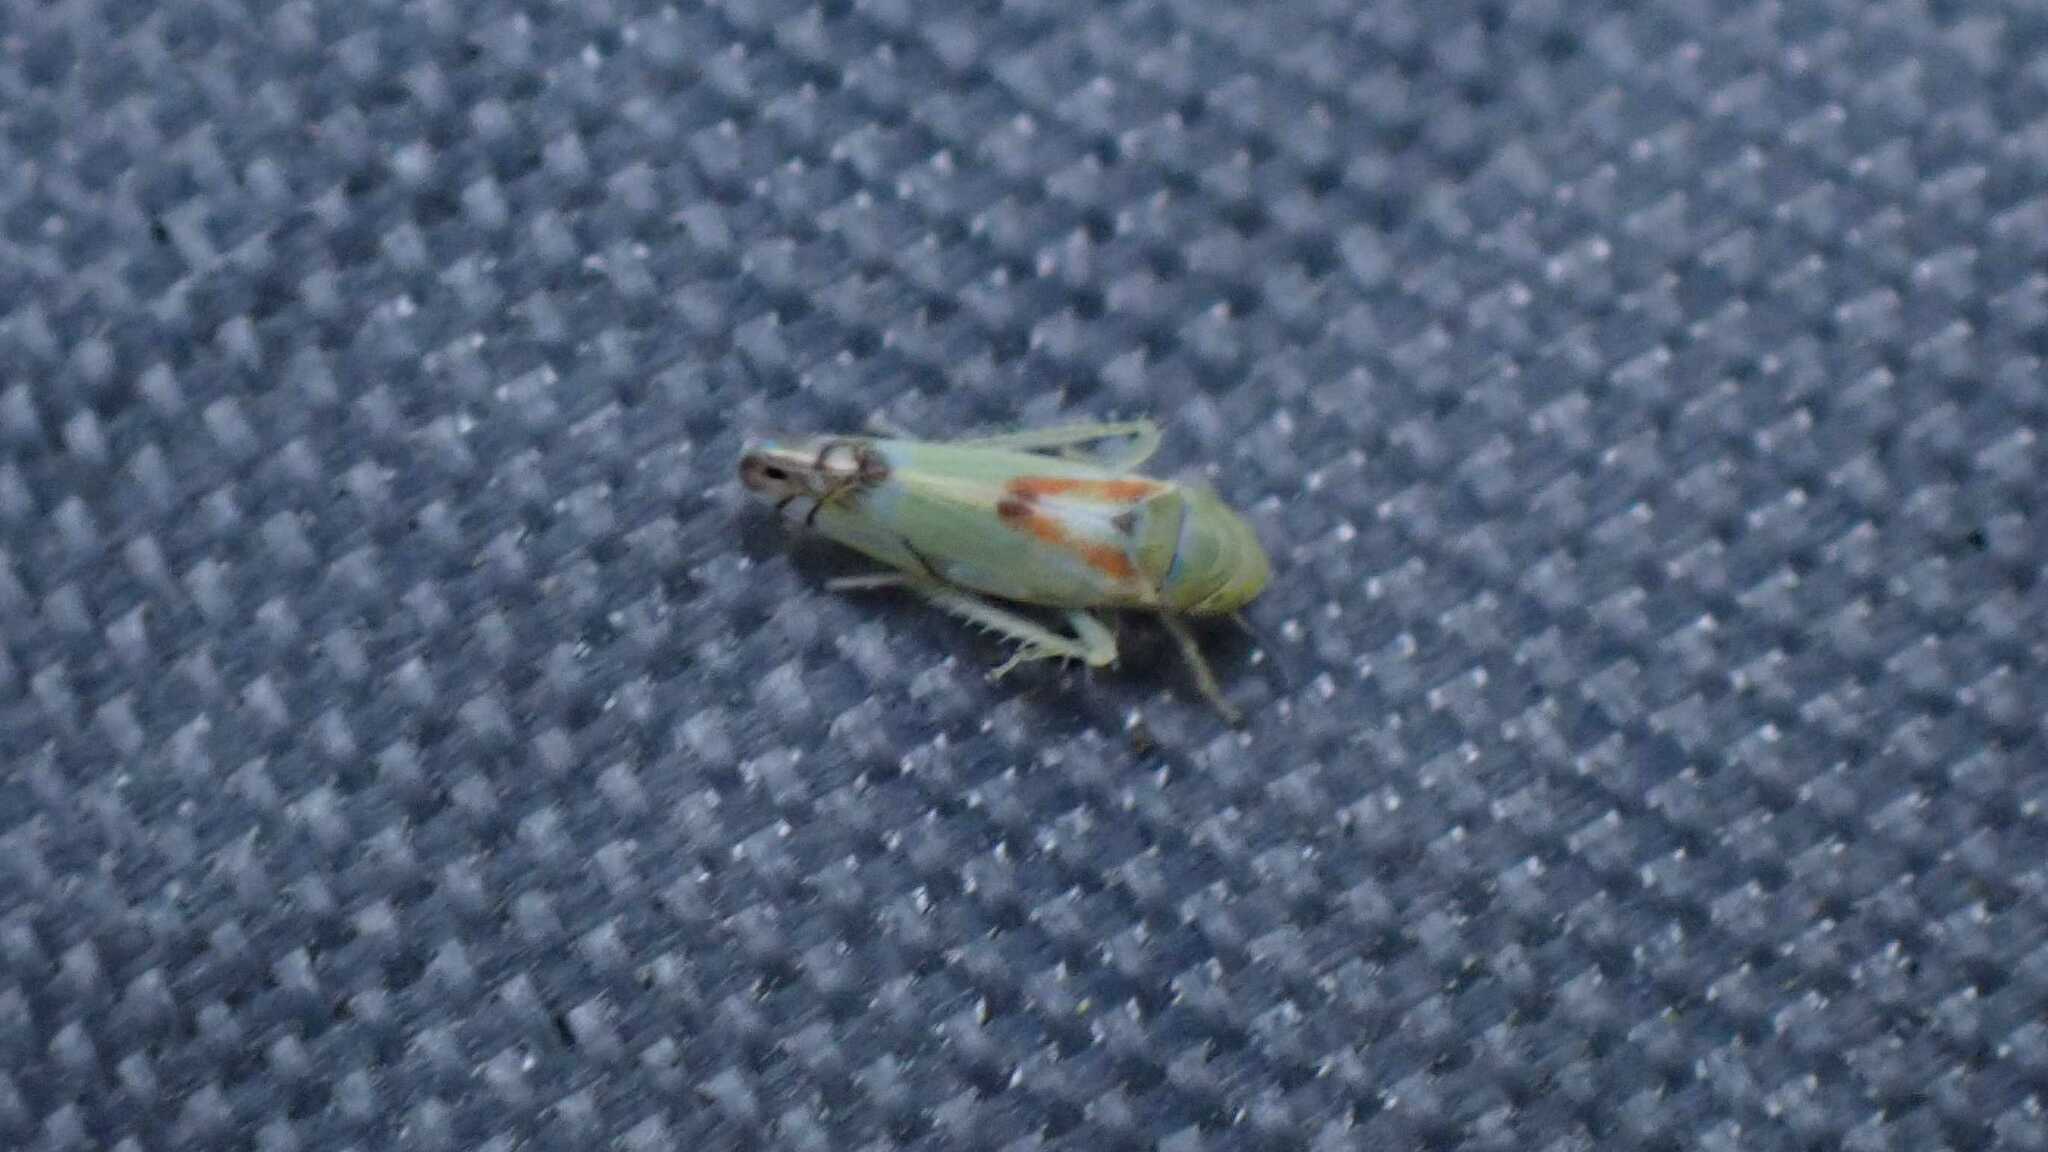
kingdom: Animalia
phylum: Arthropoda
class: Insecta
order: Hemiptera
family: Cicadellidae
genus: Zyginella
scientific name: Zyginella pulchra
